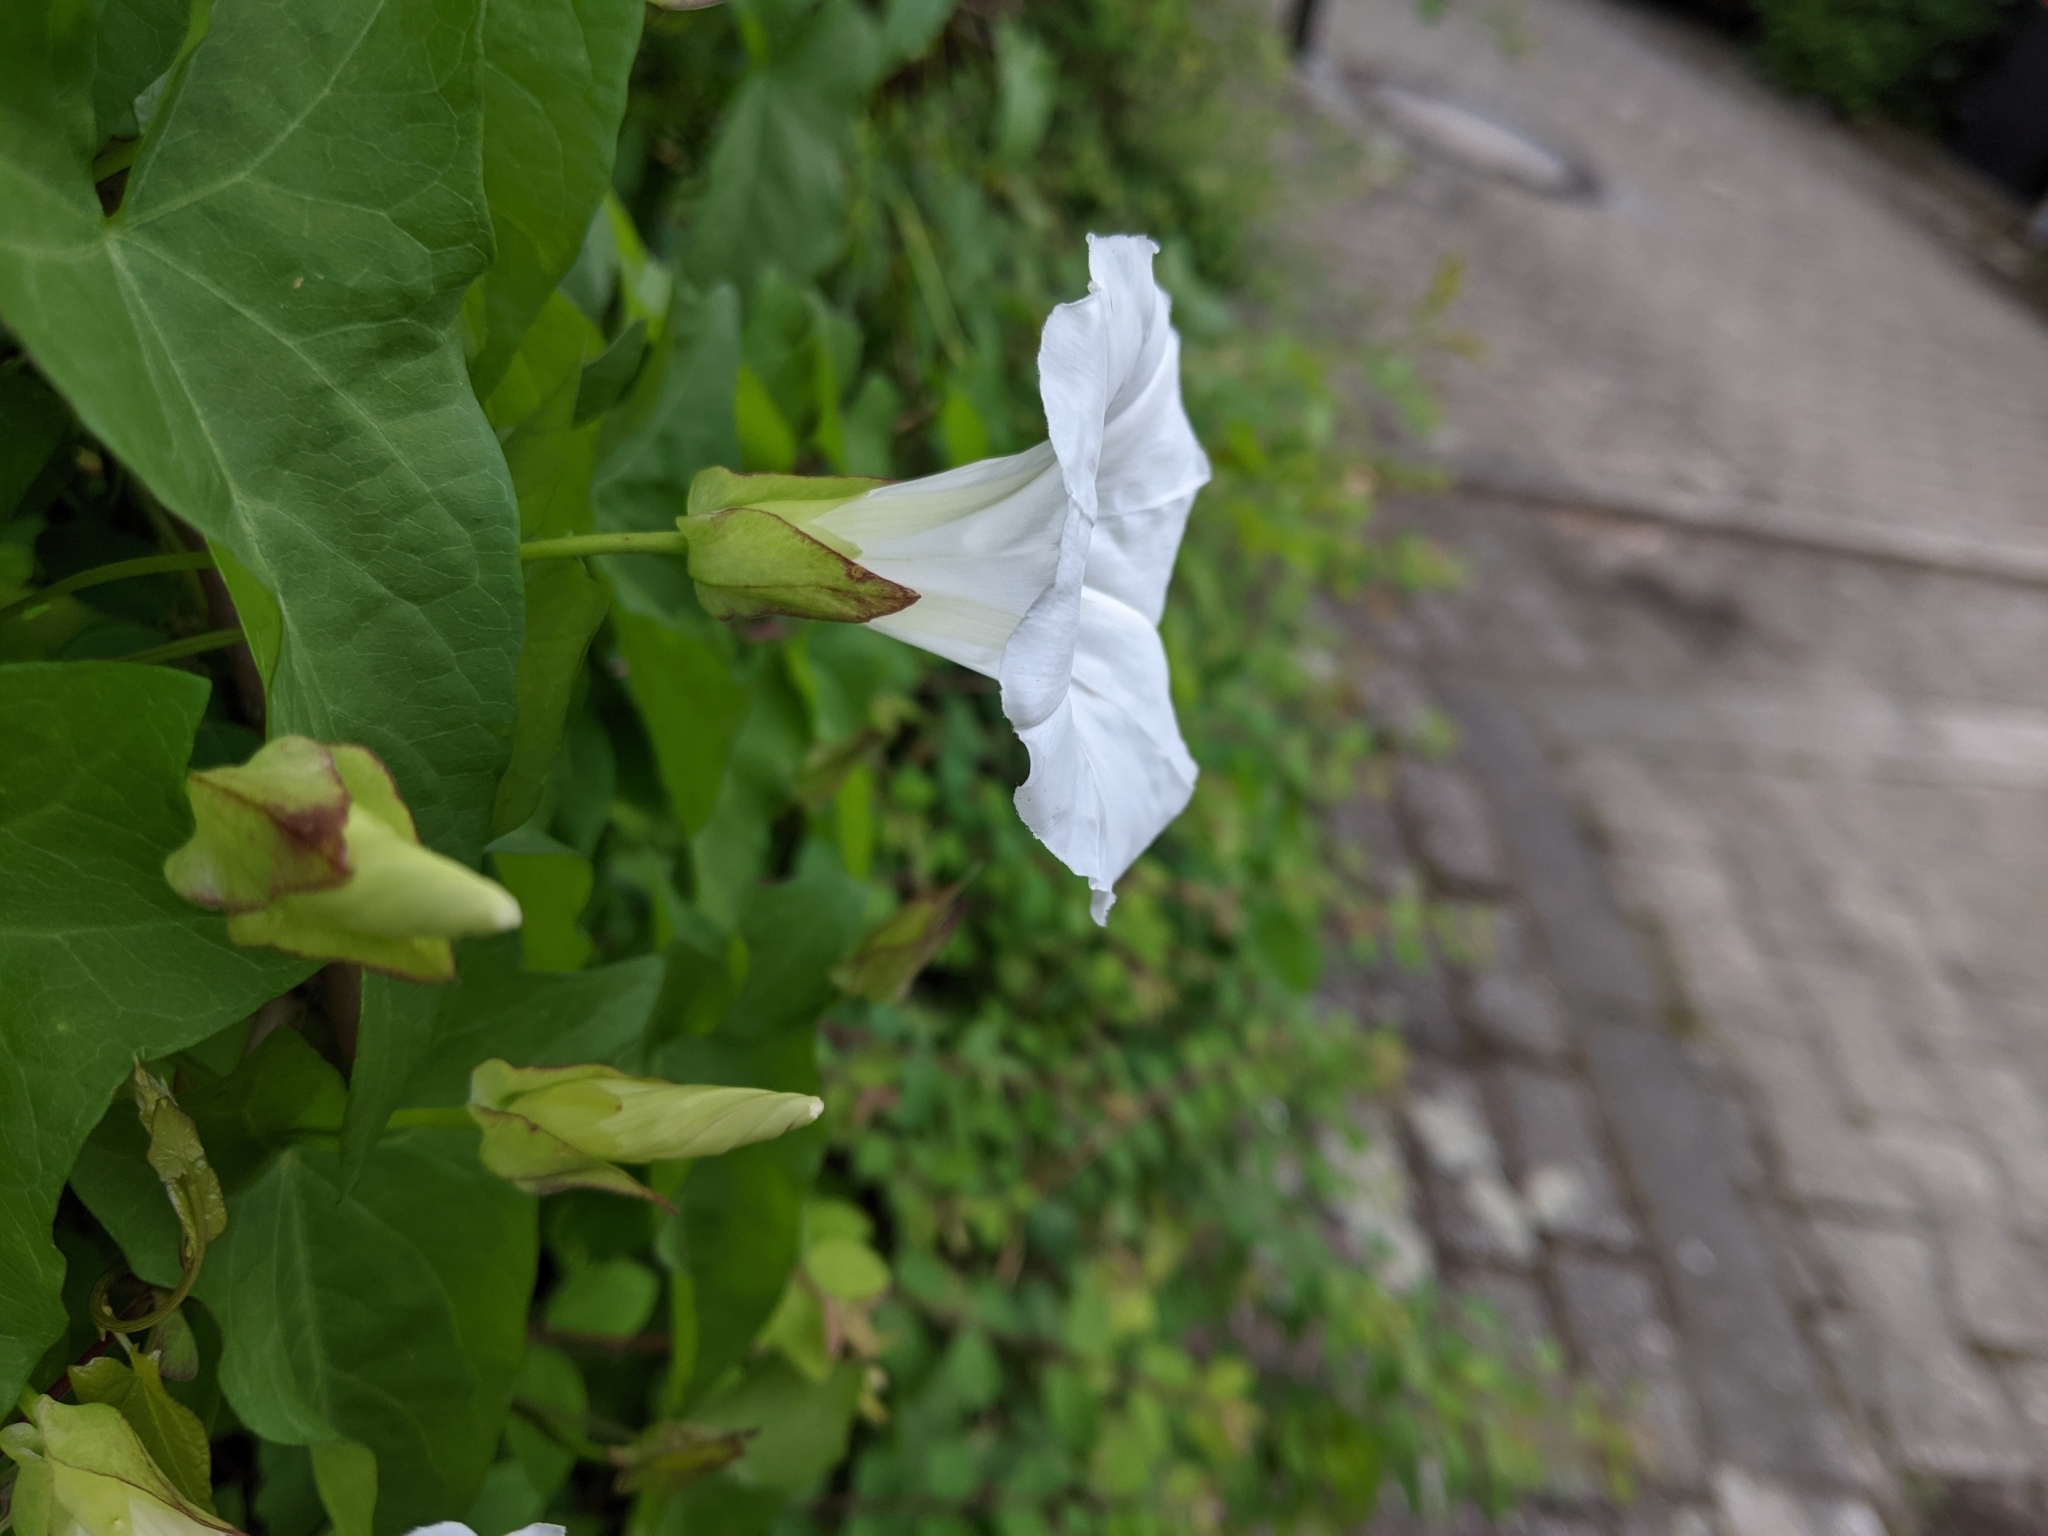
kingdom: Plantae
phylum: Tracheophyta
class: Magnoliopsida
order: Solanales
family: Convolvulaceae
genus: Calystegia
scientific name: Calystegia sepium
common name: Hedge bindweed
